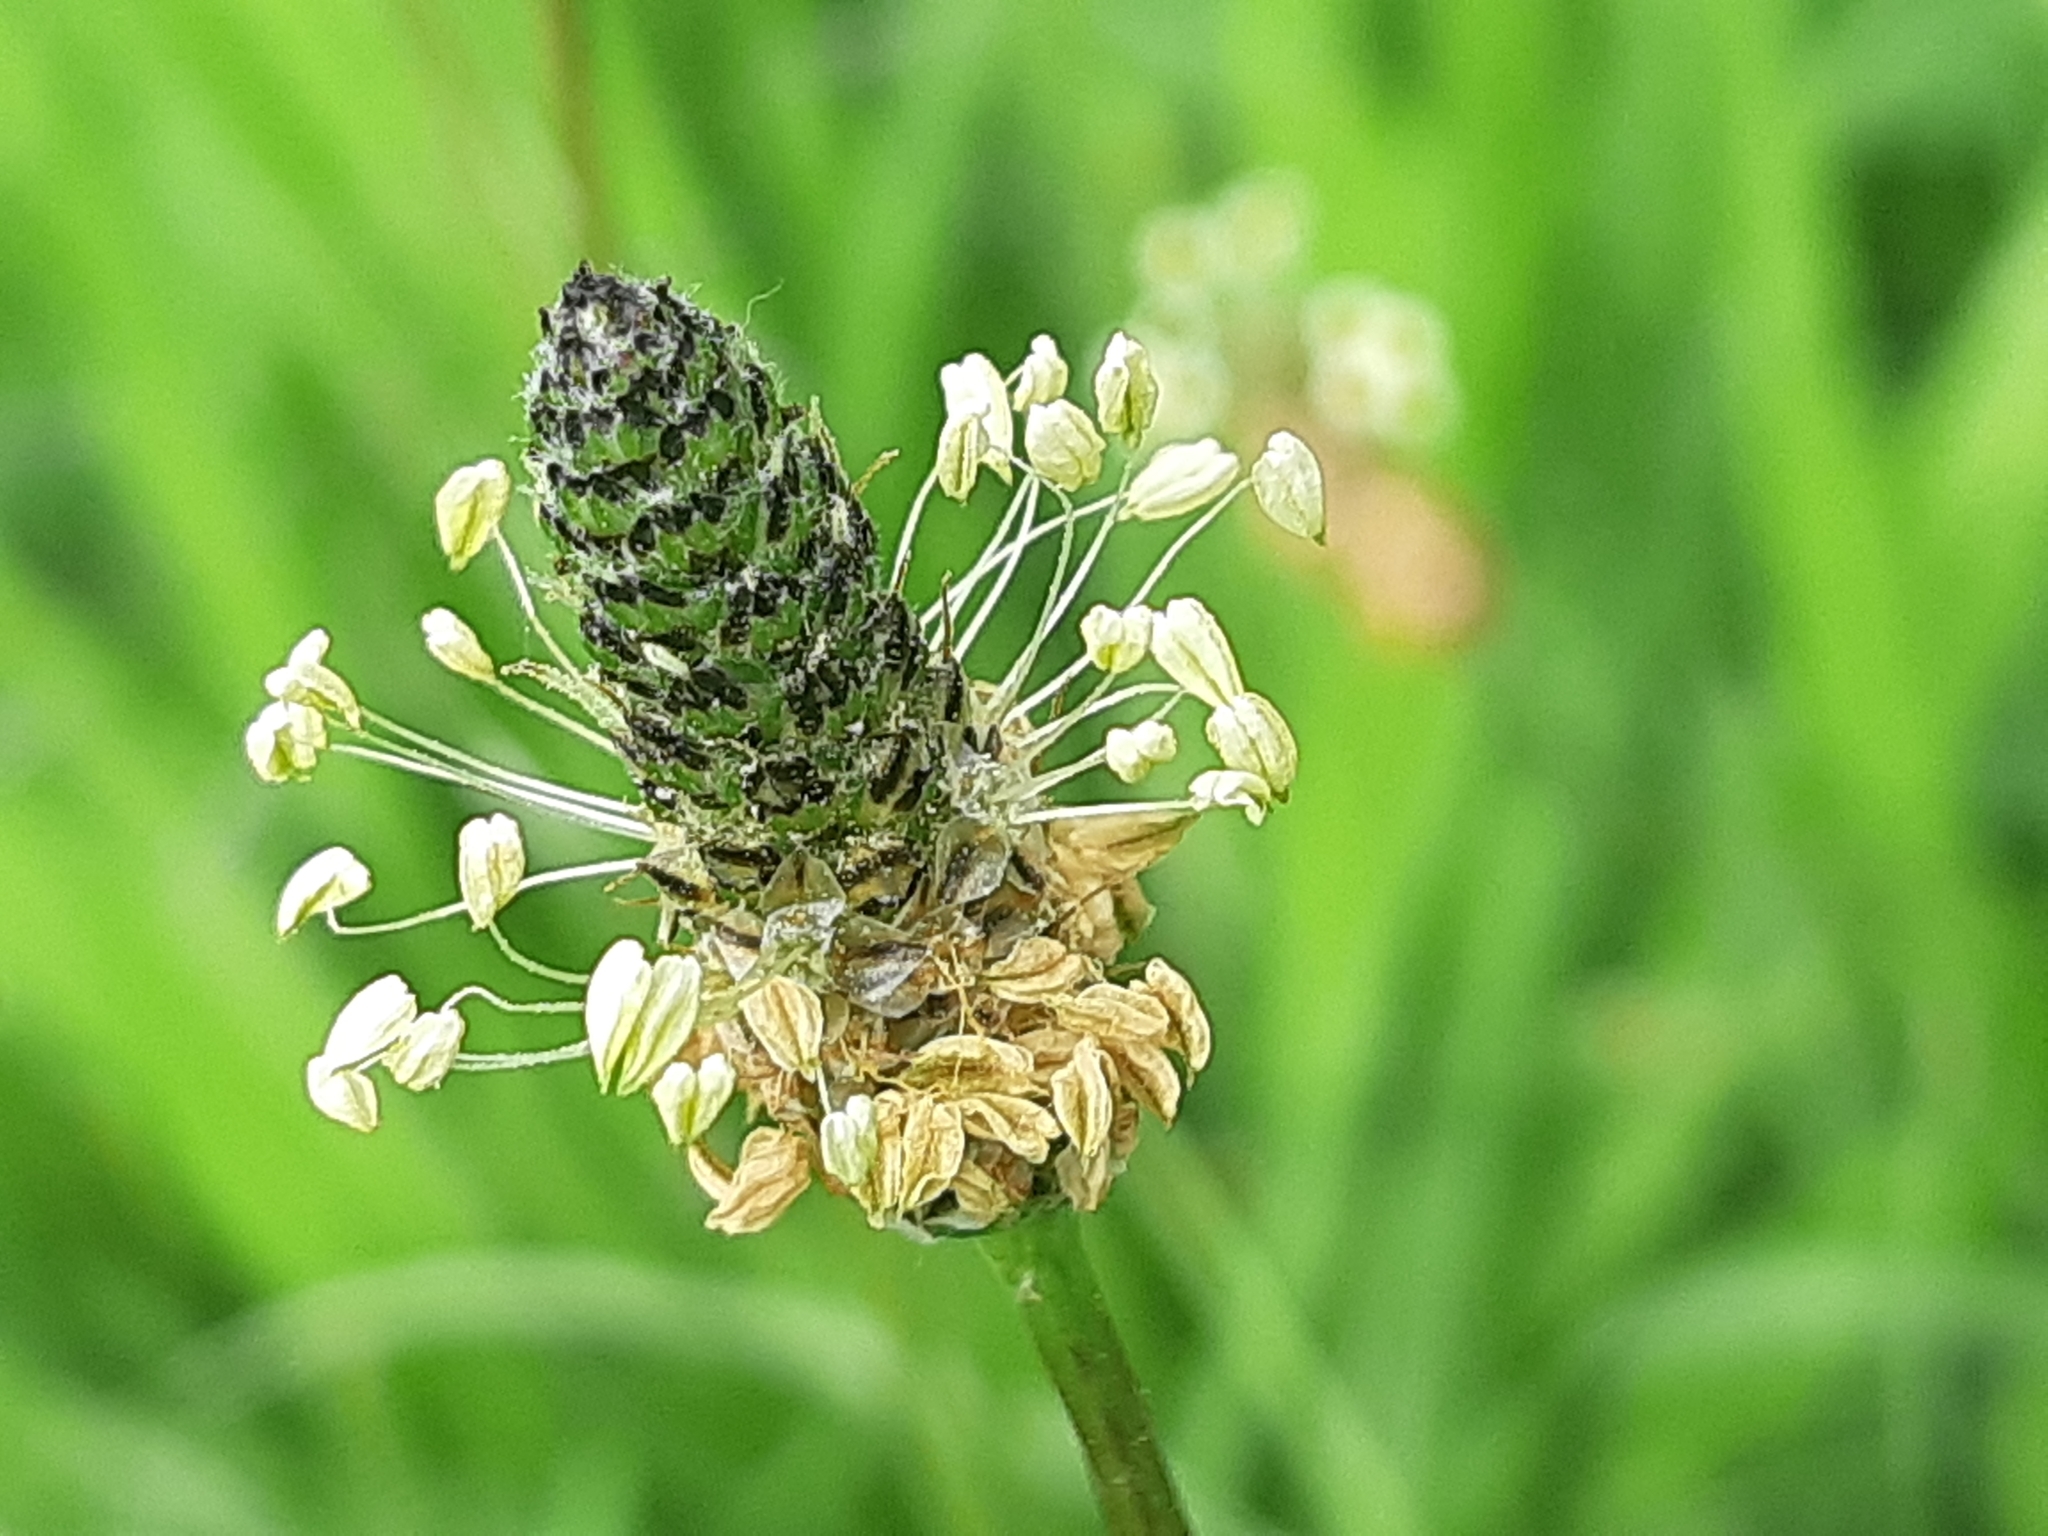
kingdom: Plantae
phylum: Tracheophyta
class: Magnoliopsida
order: Lamiales
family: Plantaginaceae
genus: Plantago
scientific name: Plantago lanceolata
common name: Ribwort plantain
